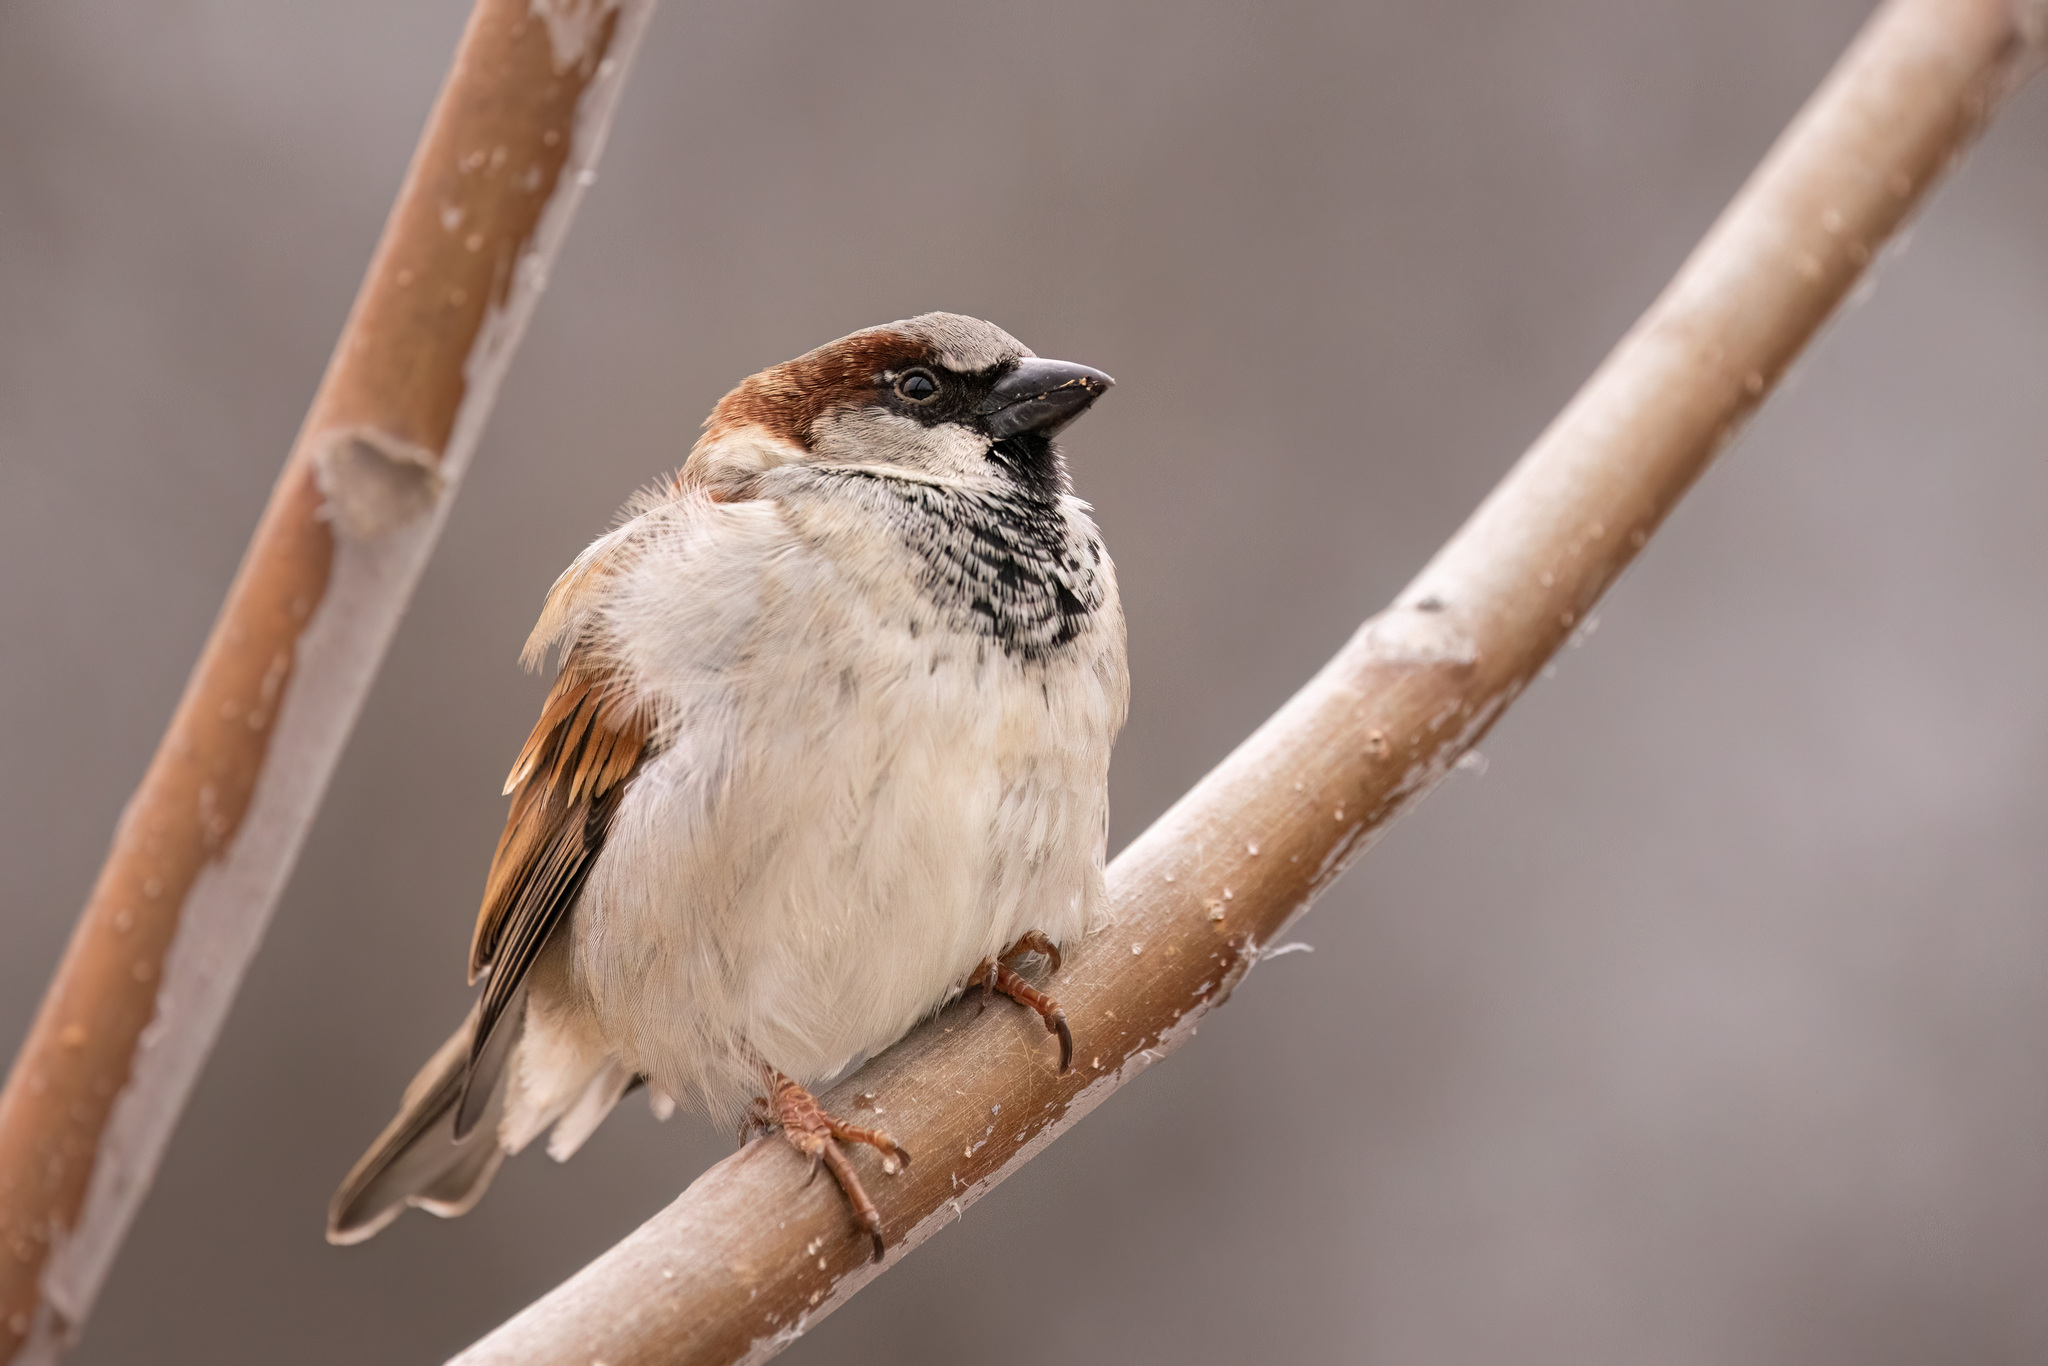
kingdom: Animalia
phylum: Chordata
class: Aves
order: Passeriformes
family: Passeridae
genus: Passer
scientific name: Passer domesticus
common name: House sparrow
